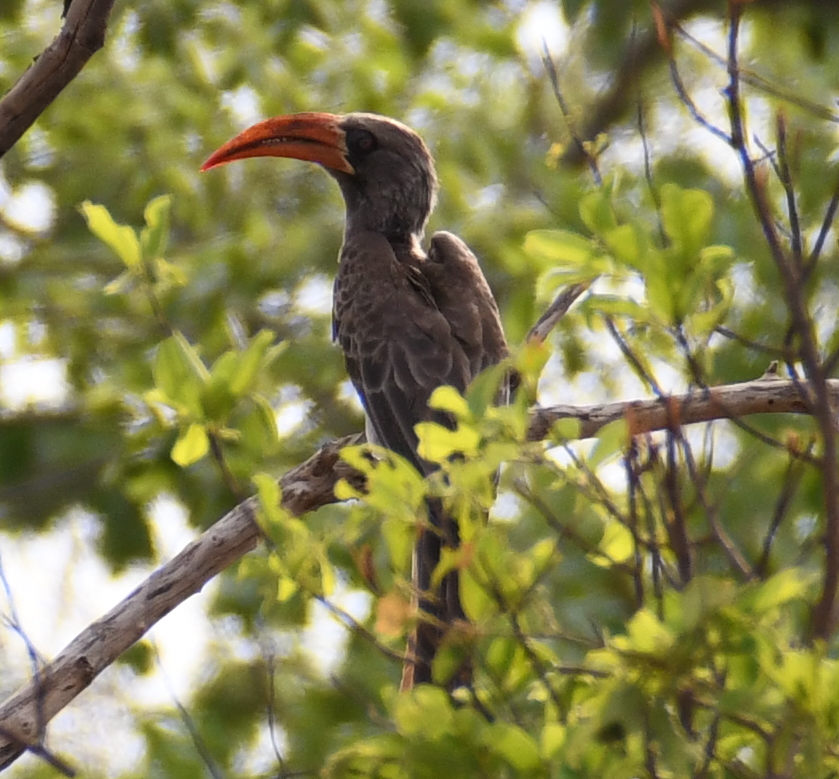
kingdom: Animalia
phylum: Chordata
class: Aves
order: Bucerotiformes
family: Bucerotidae
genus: Lophoceros
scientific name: Lophoceros bradfieldi
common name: Bradfield's hornbill
